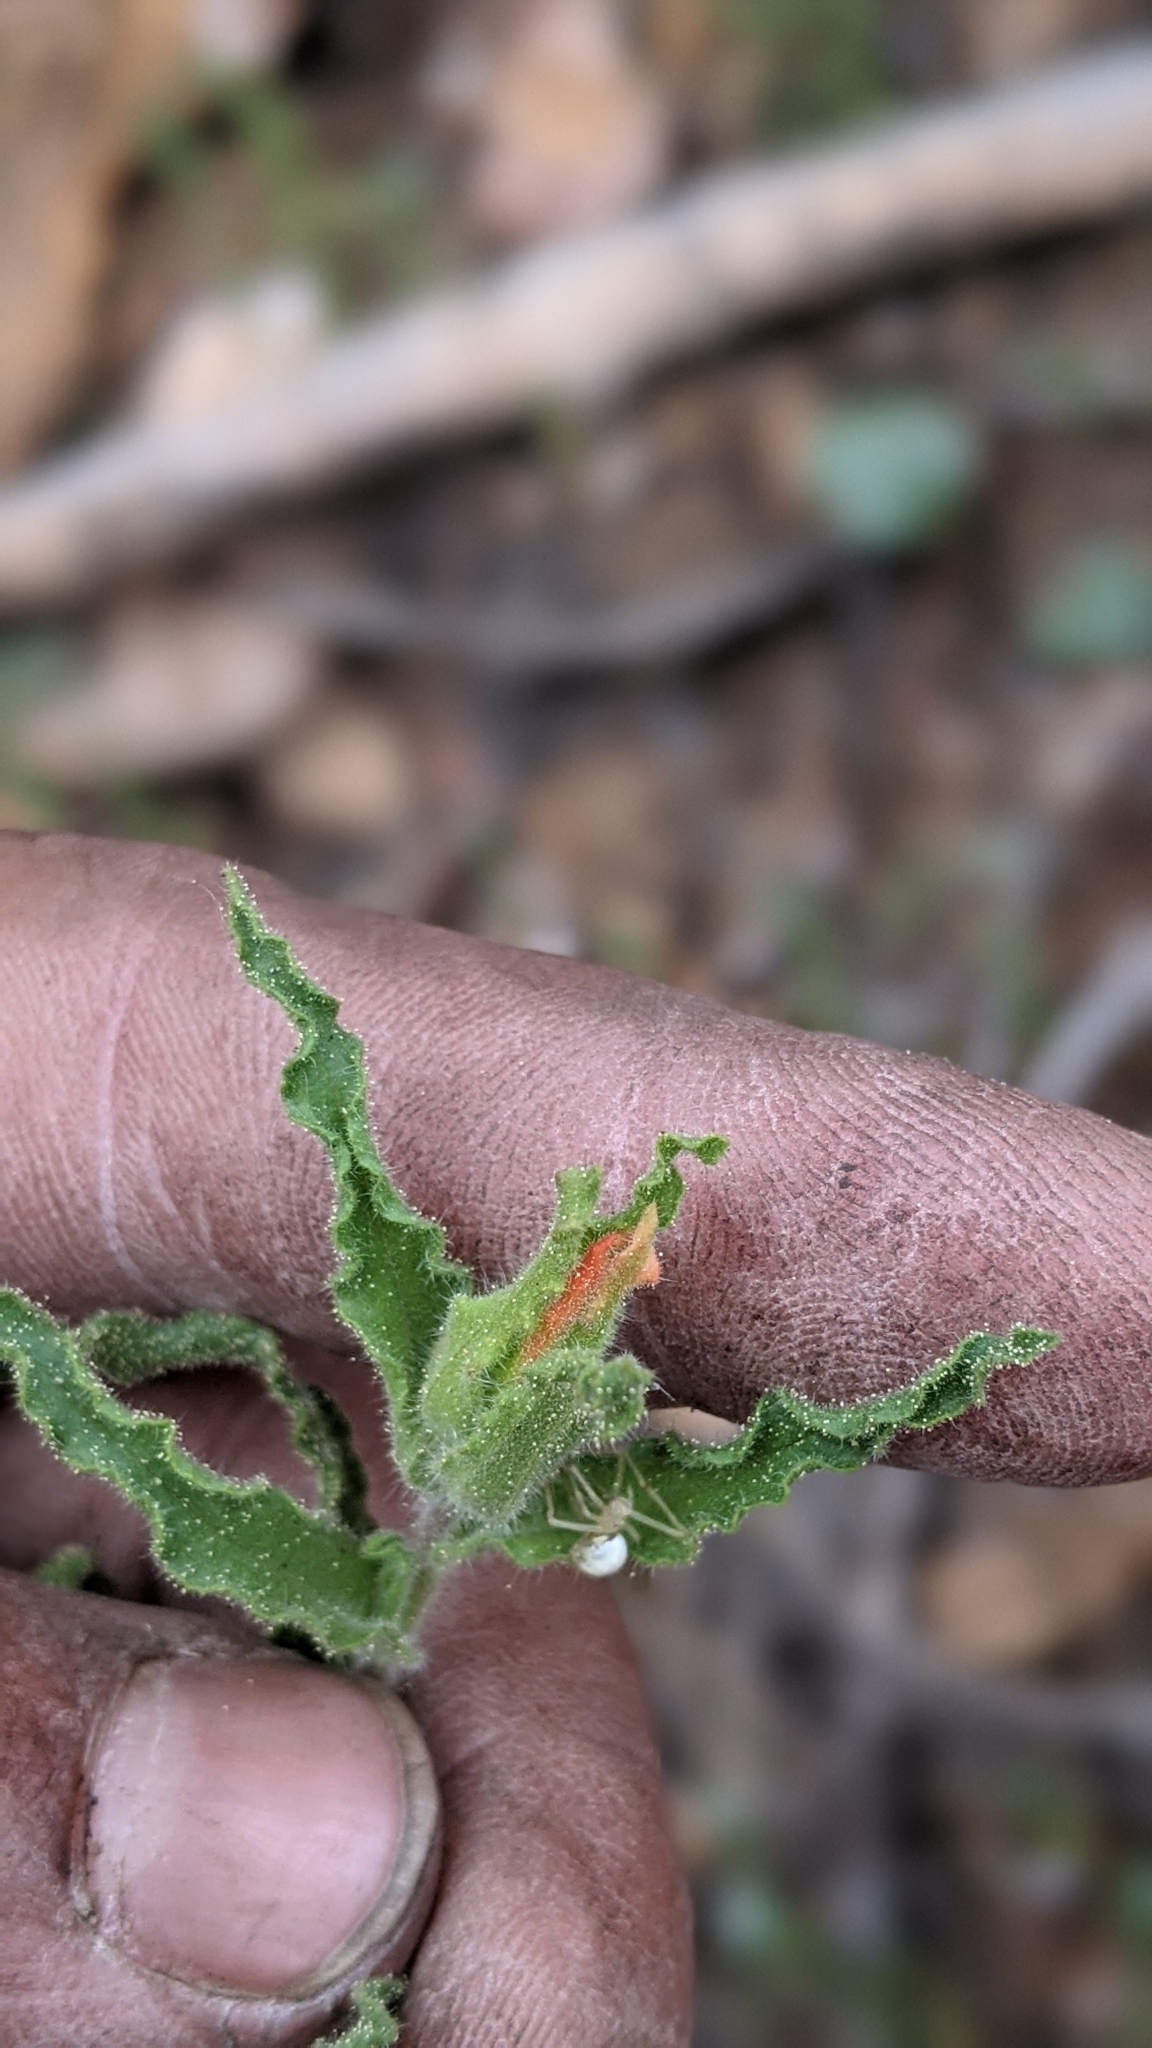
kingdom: Plantae
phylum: Tracheophyta
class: Magnoliopsida
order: Lamiales
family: Orobanchaceae
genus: Castilleja
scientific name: Castilleja disticha
